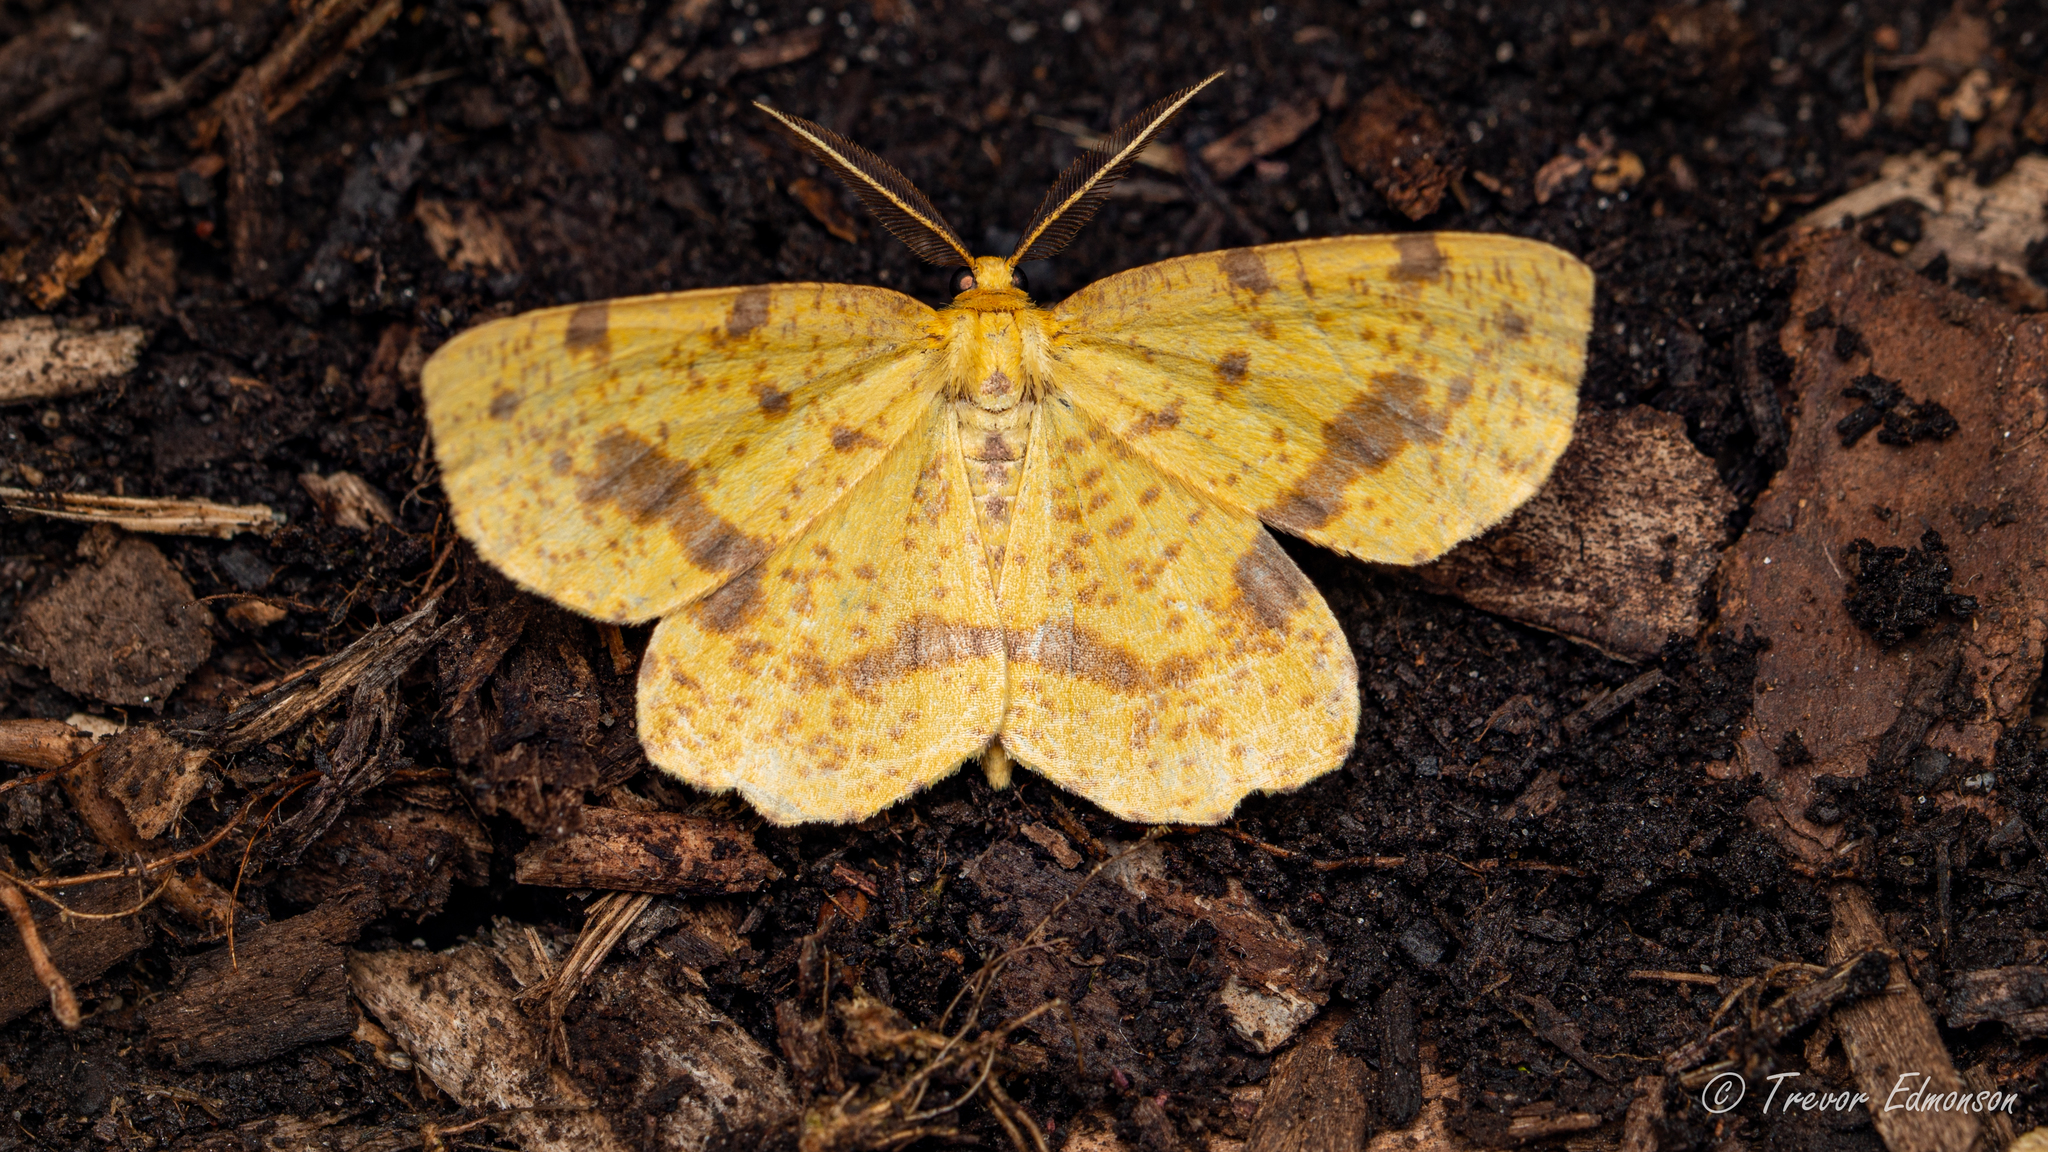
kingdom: Animalia
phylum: Arthropoda
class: Insecta
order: Lepidoptera
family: Geometridae
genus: Xanthotype
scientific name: Xanthotype
